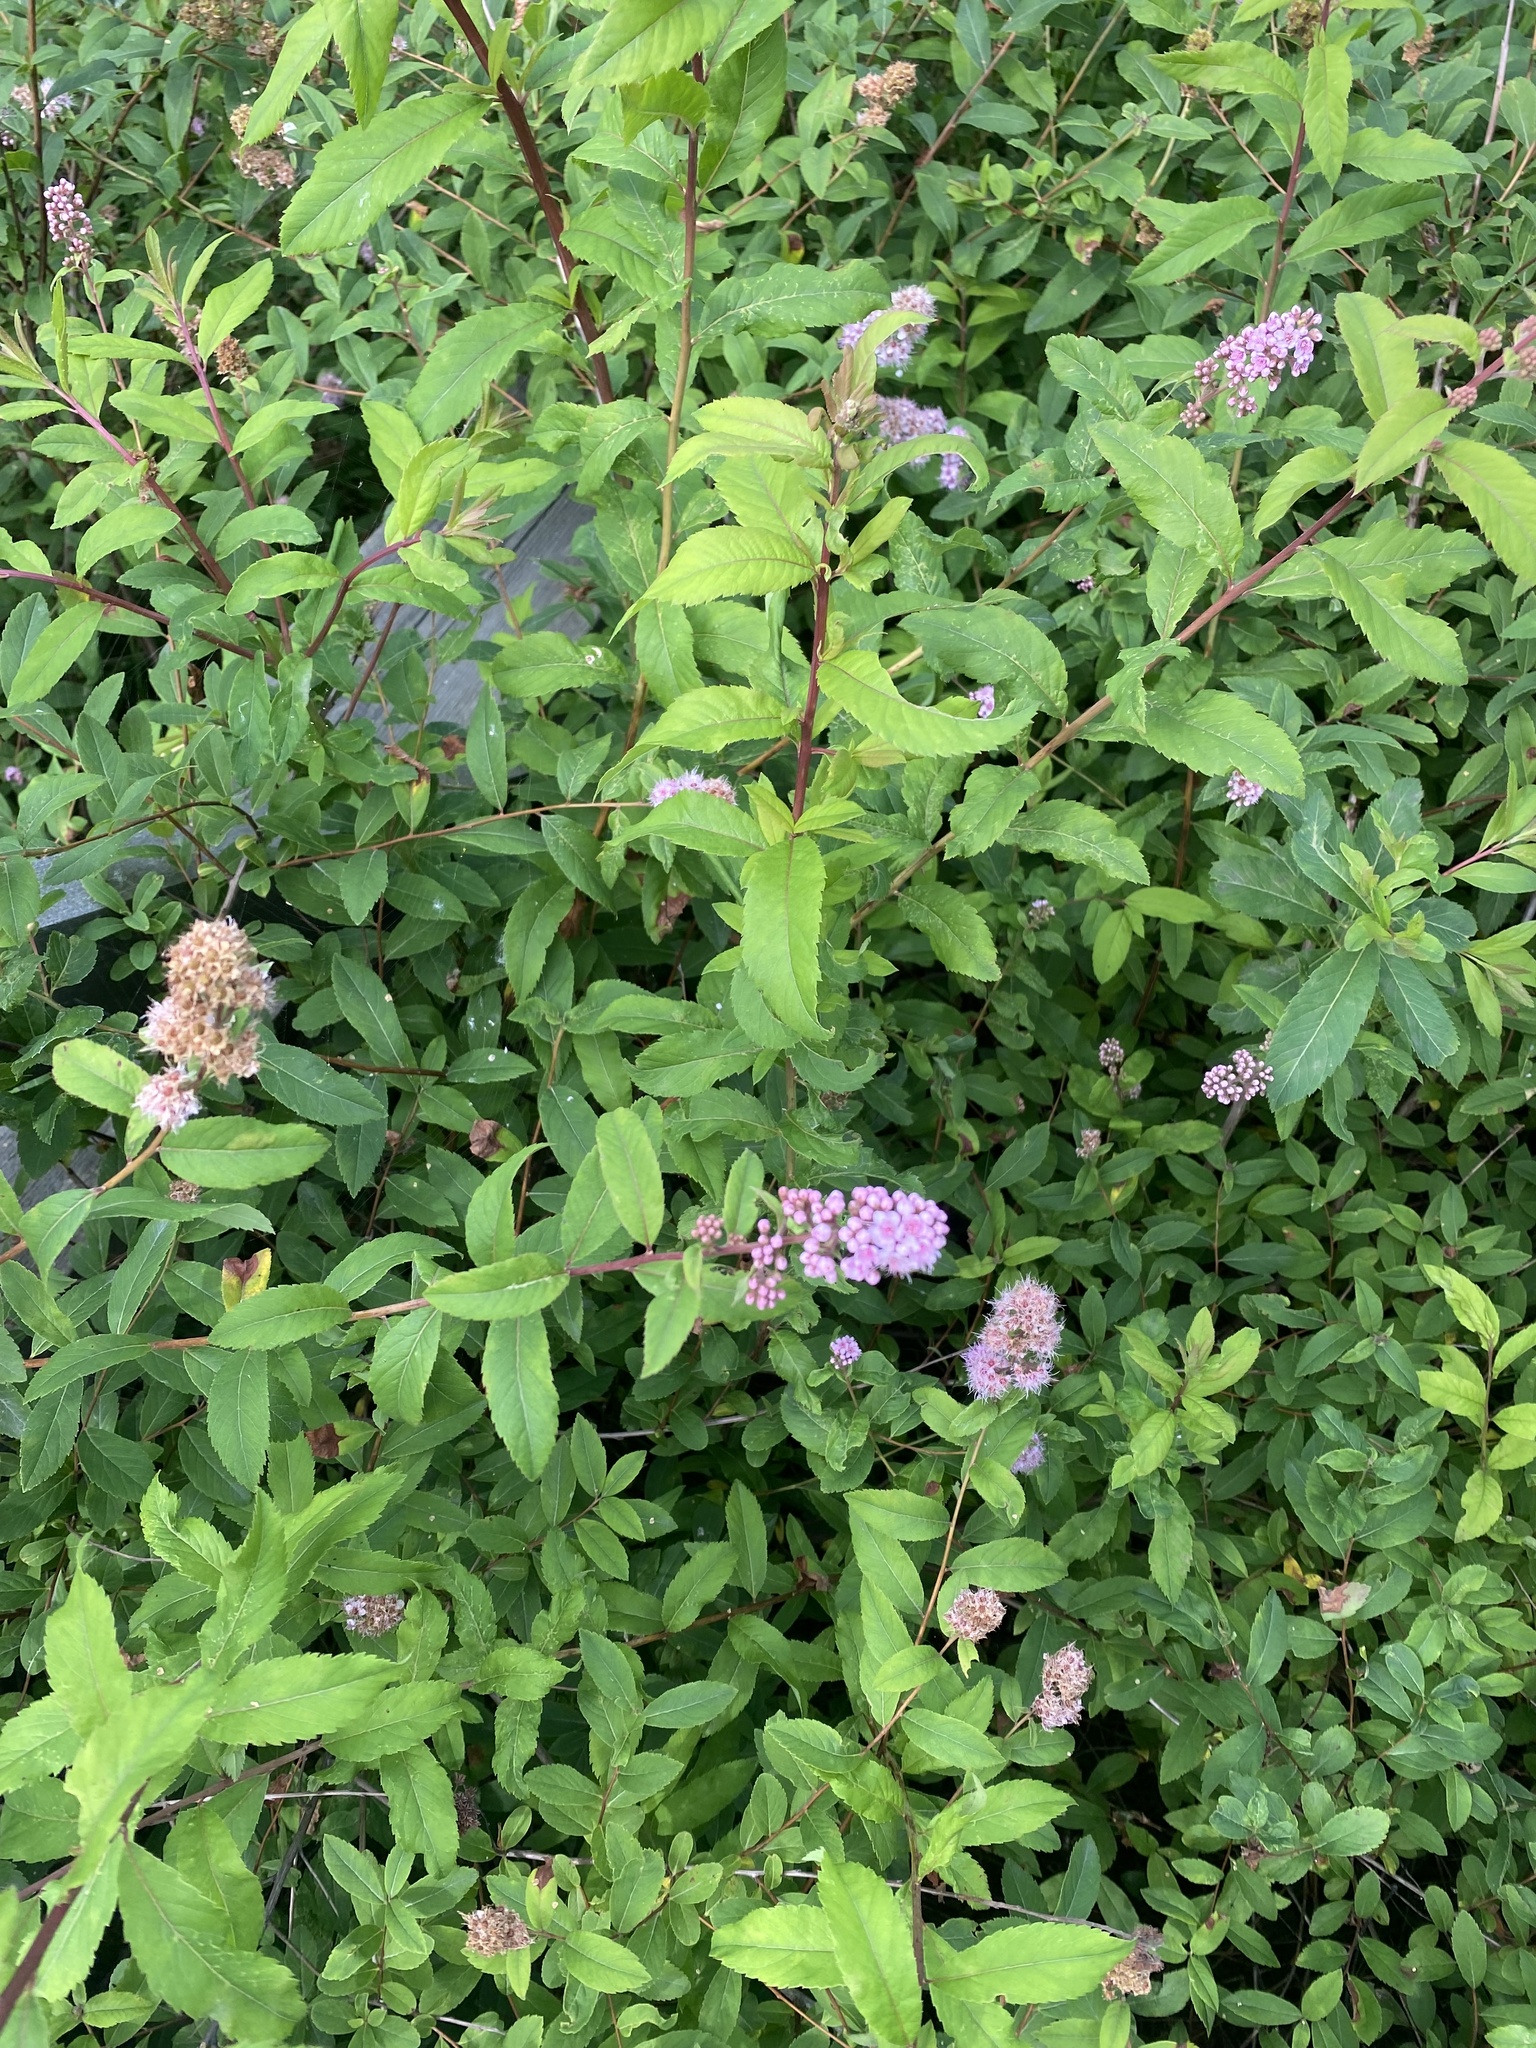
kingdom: Plantae
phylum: Tracheophyta
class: Magnoliopsida
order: Rosales
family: Rosaceae
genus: Spiraea
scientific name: Spiraea salicifolia
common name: Bridewort
